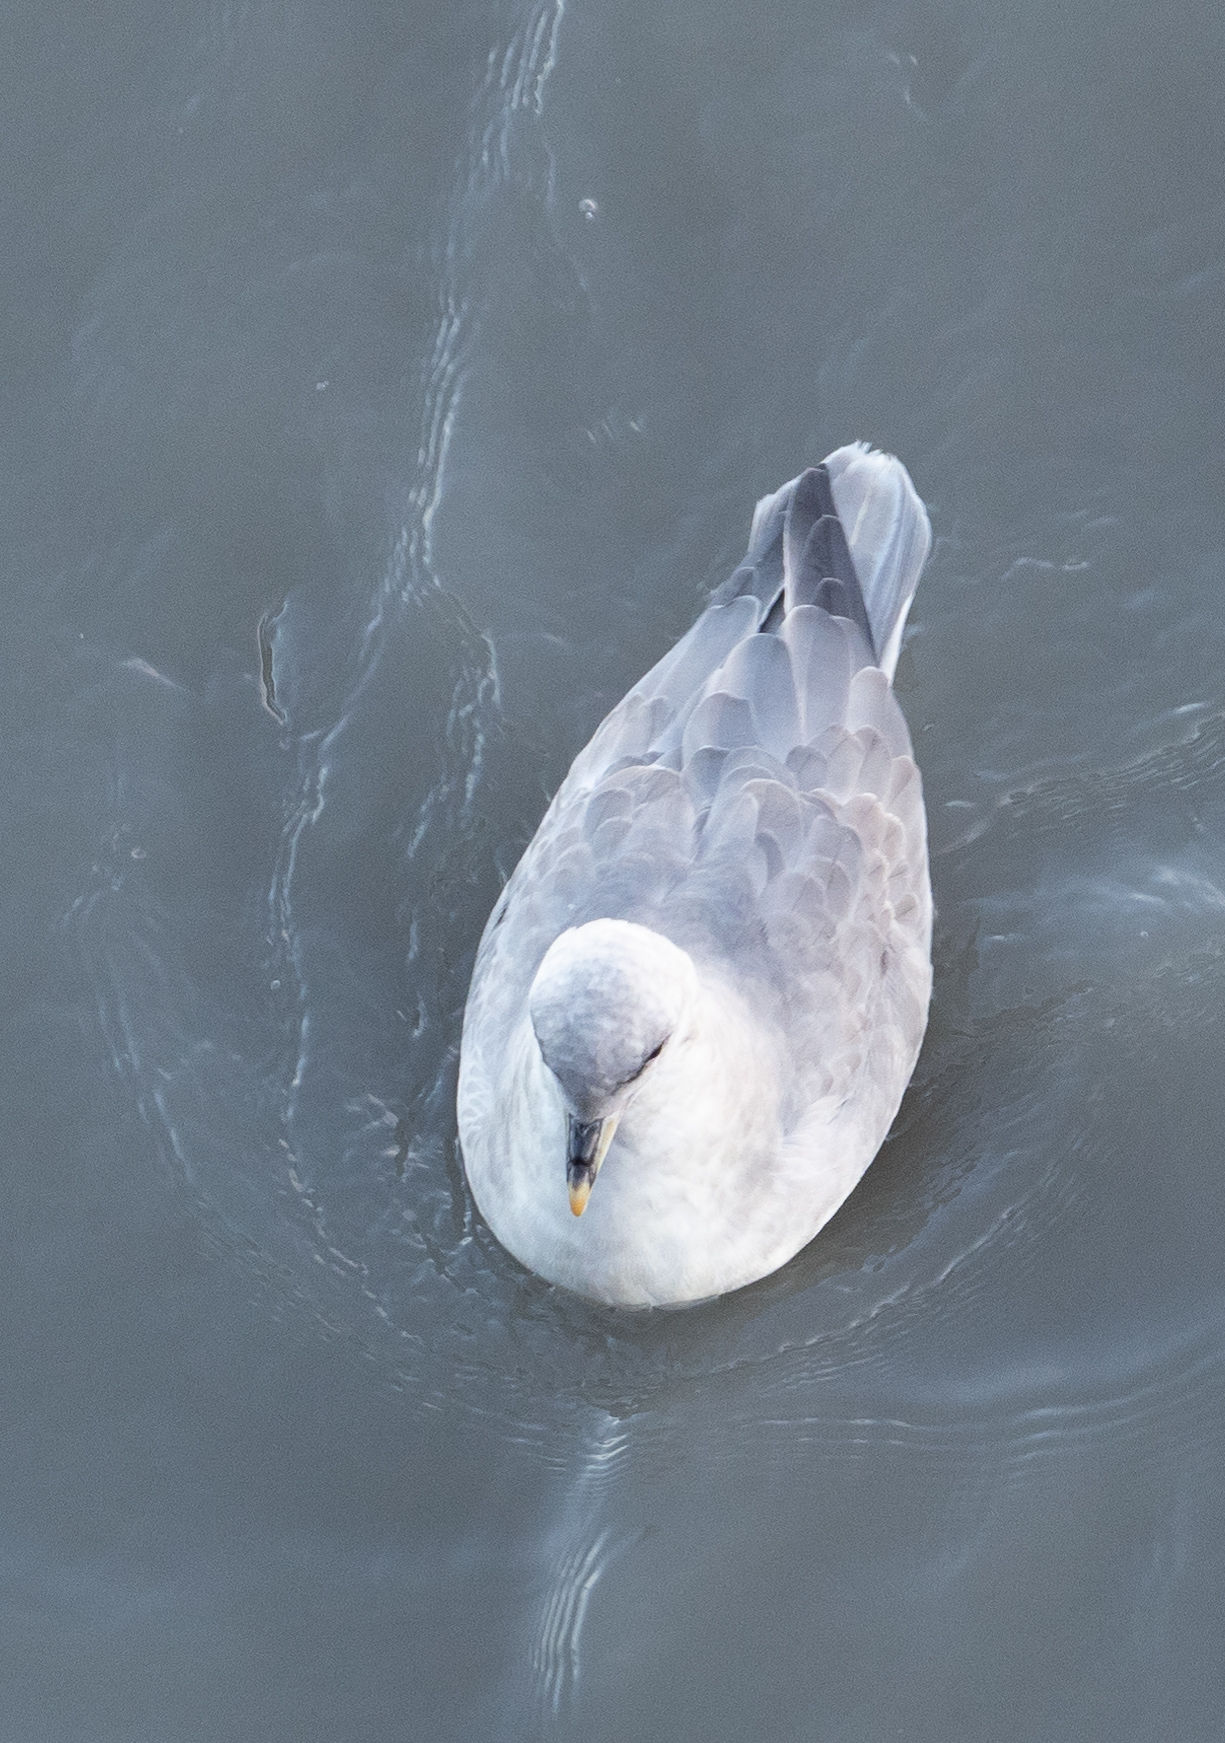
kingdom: Animalia
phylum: Chordata
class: Aves
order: Procellariiformes
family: Procellariidae
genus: Fulmarus
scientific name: Fulmarus glacialis
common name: Northern fulmar
